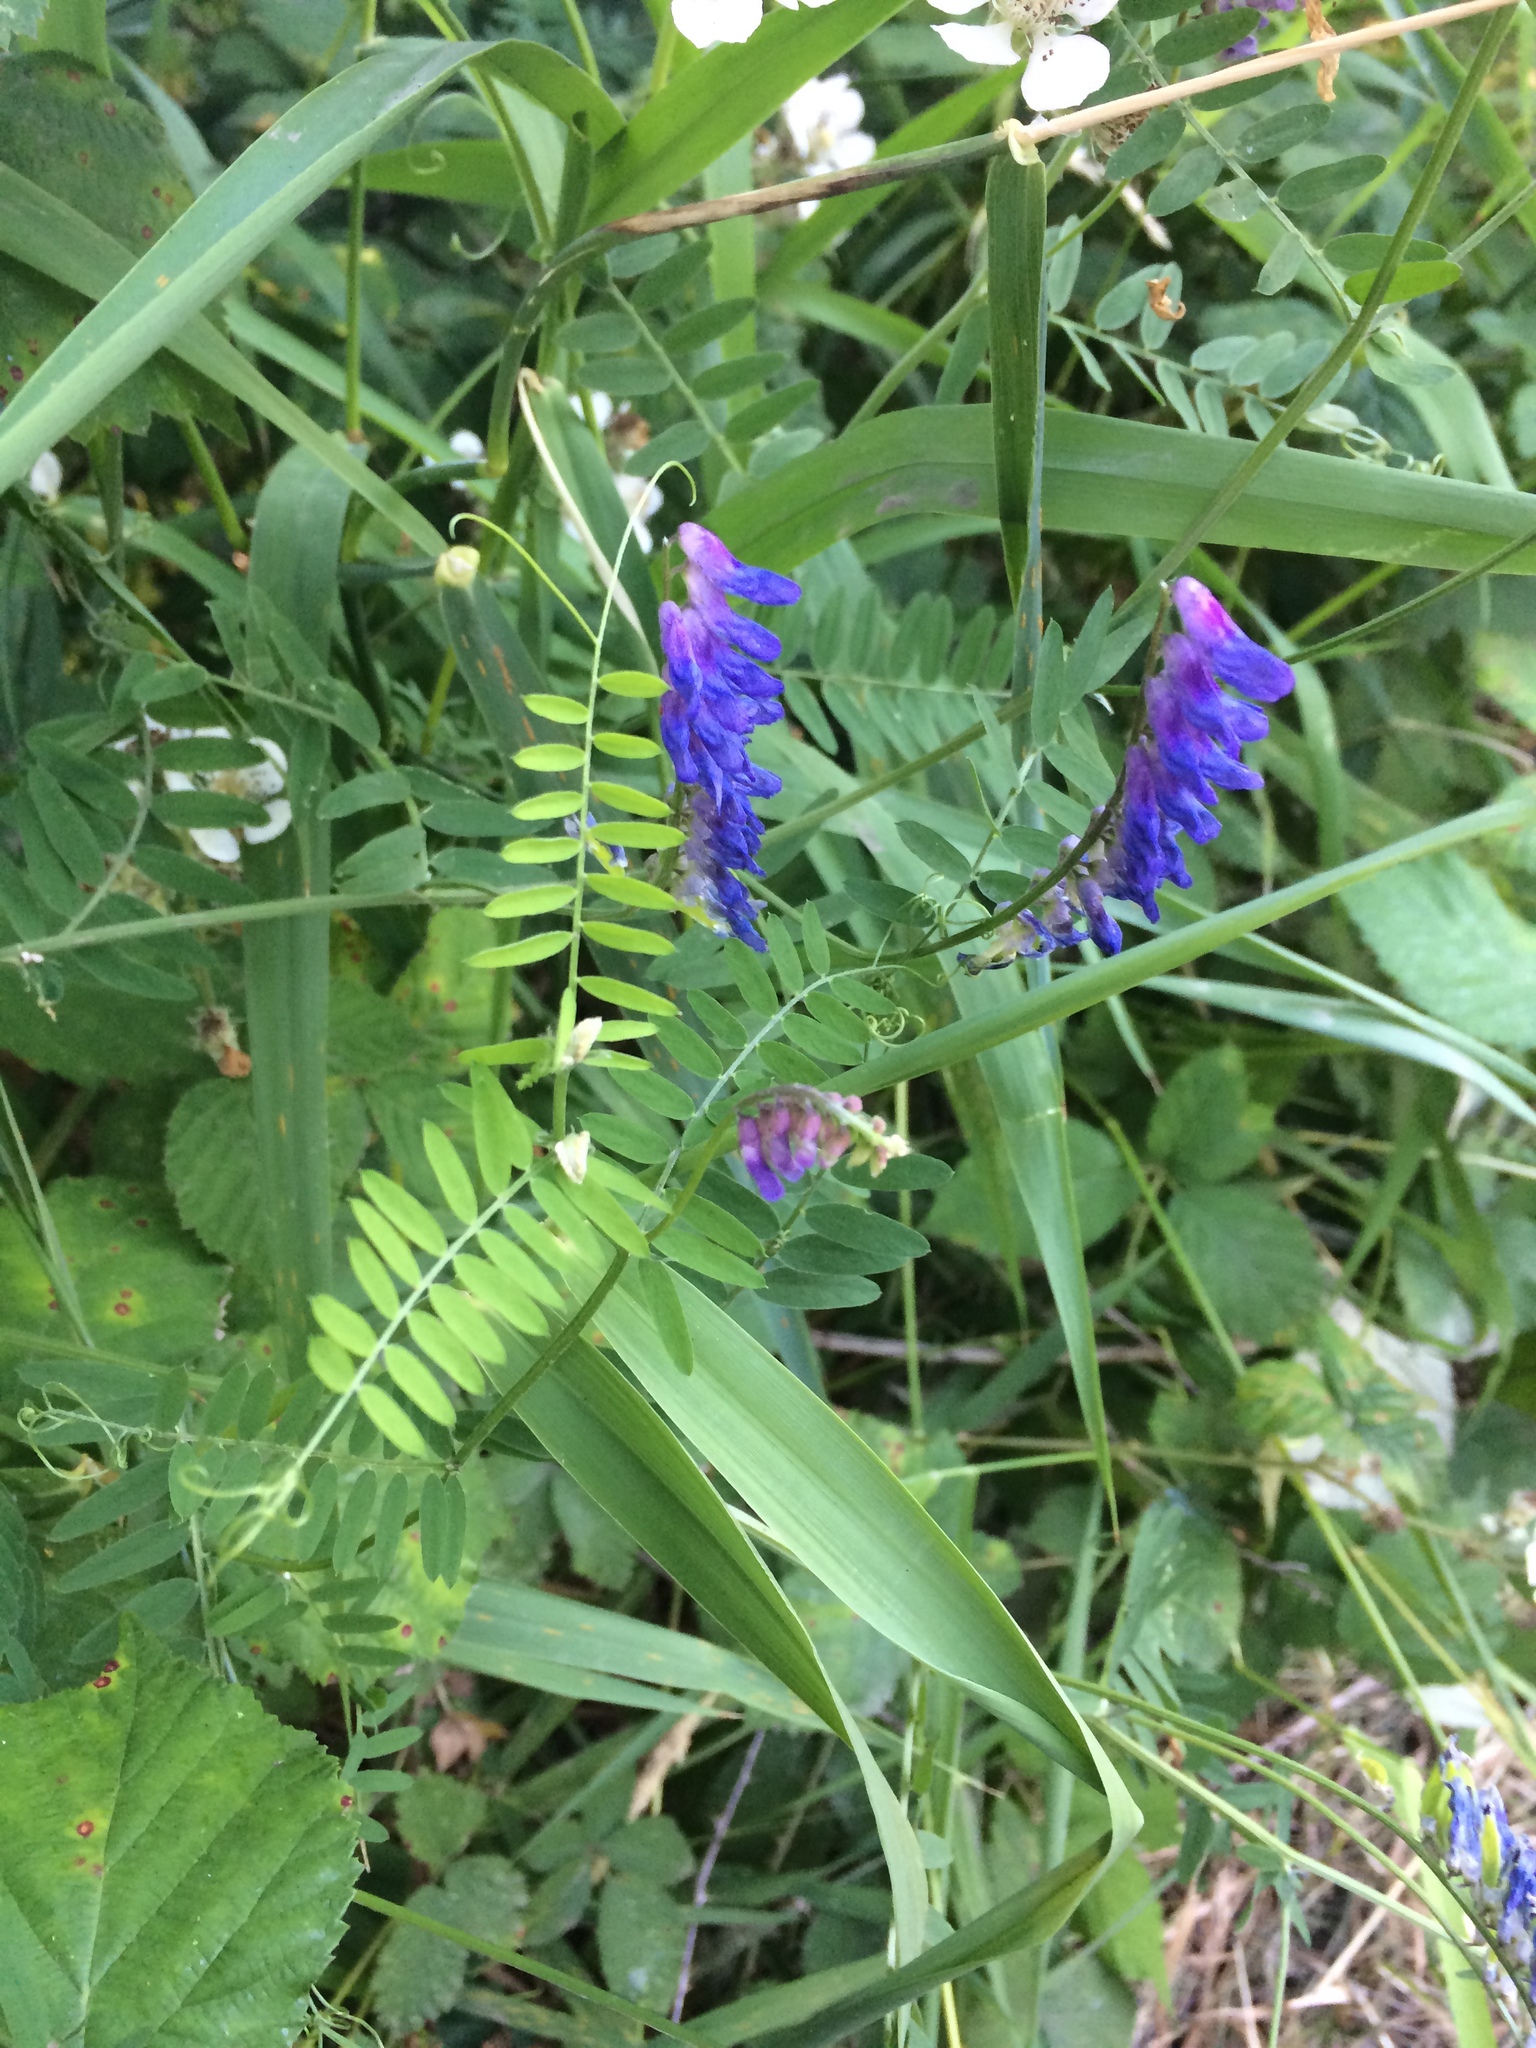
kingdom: Plantae
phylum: Tracheophyta
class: Magnoliopsida
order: Fabales
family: Fabaceae
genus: Vicia
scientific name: Vicia cracca
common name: Bird vetch
